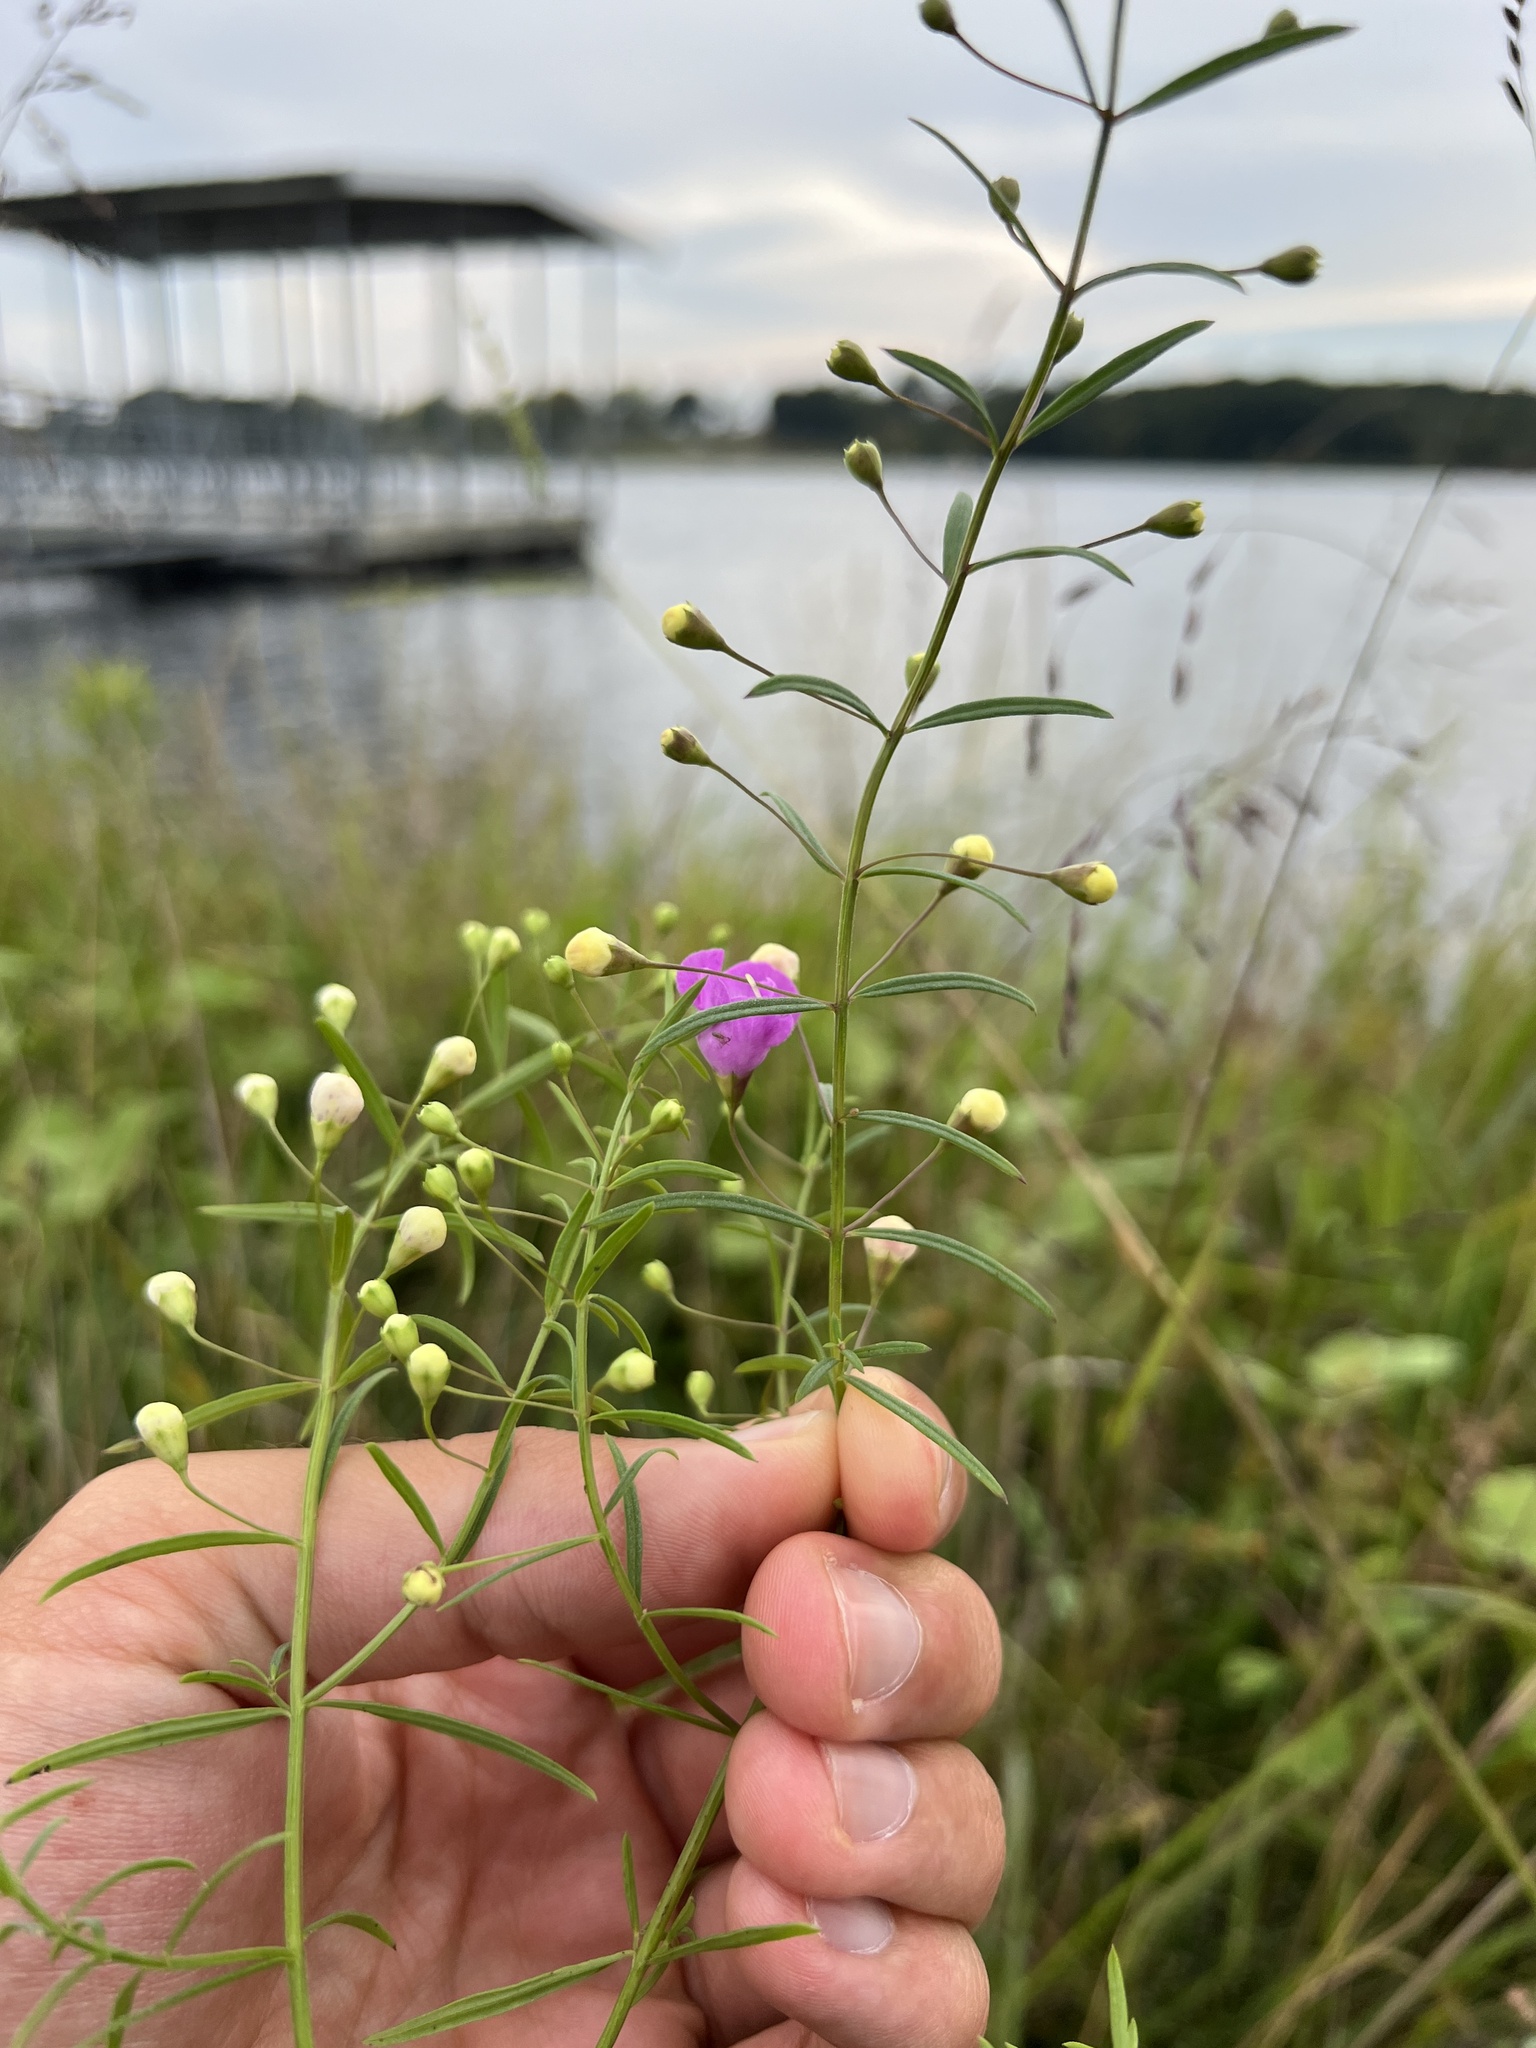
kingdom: Plantae
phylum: Tracheophyta
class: Magnoliopsida
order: Lamiales
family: Orobanchaceae
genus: Agalinis
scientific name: Agalinis tenuifolia
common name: Slender agalinis
